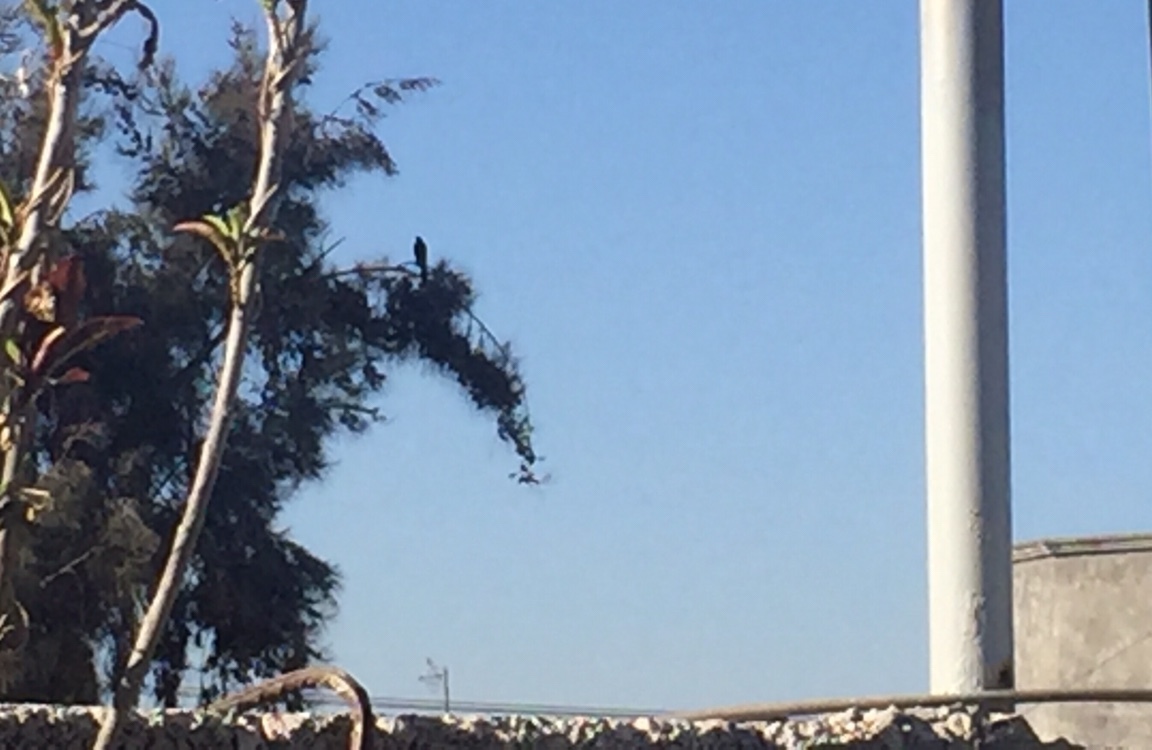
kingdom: Animalia
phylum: Chordata
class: Aves
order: Passeriformes
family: Icteridae
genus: Quiscalus
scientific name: Quiscalus mexicanus
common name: Great-tailed grackle
